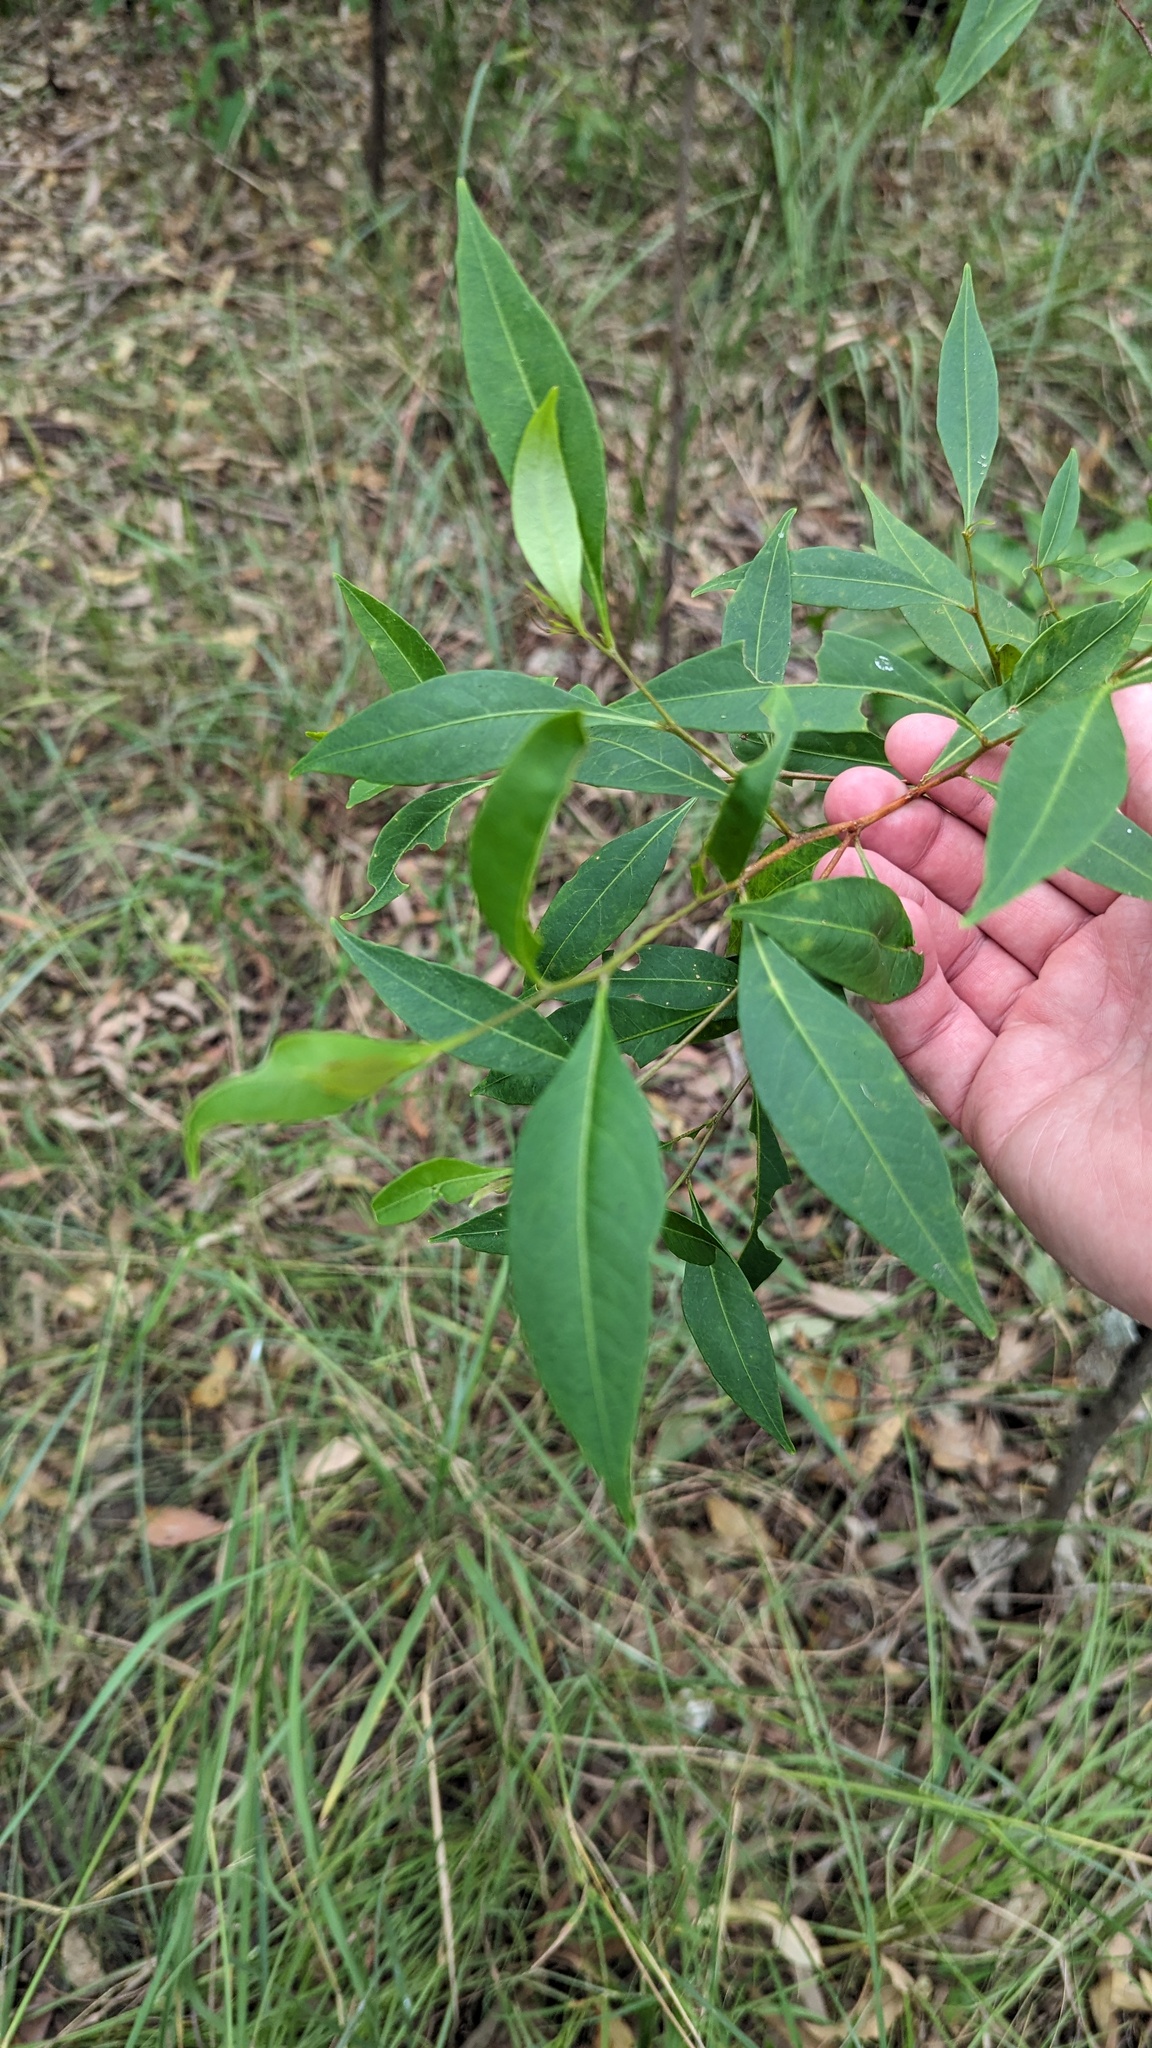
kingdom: Plantae
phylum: Tracheophyta
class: Magnoliopsida
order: Sapindales
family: Sapindaceae
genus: Dodonaea
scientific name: Dodonaea triquetra
